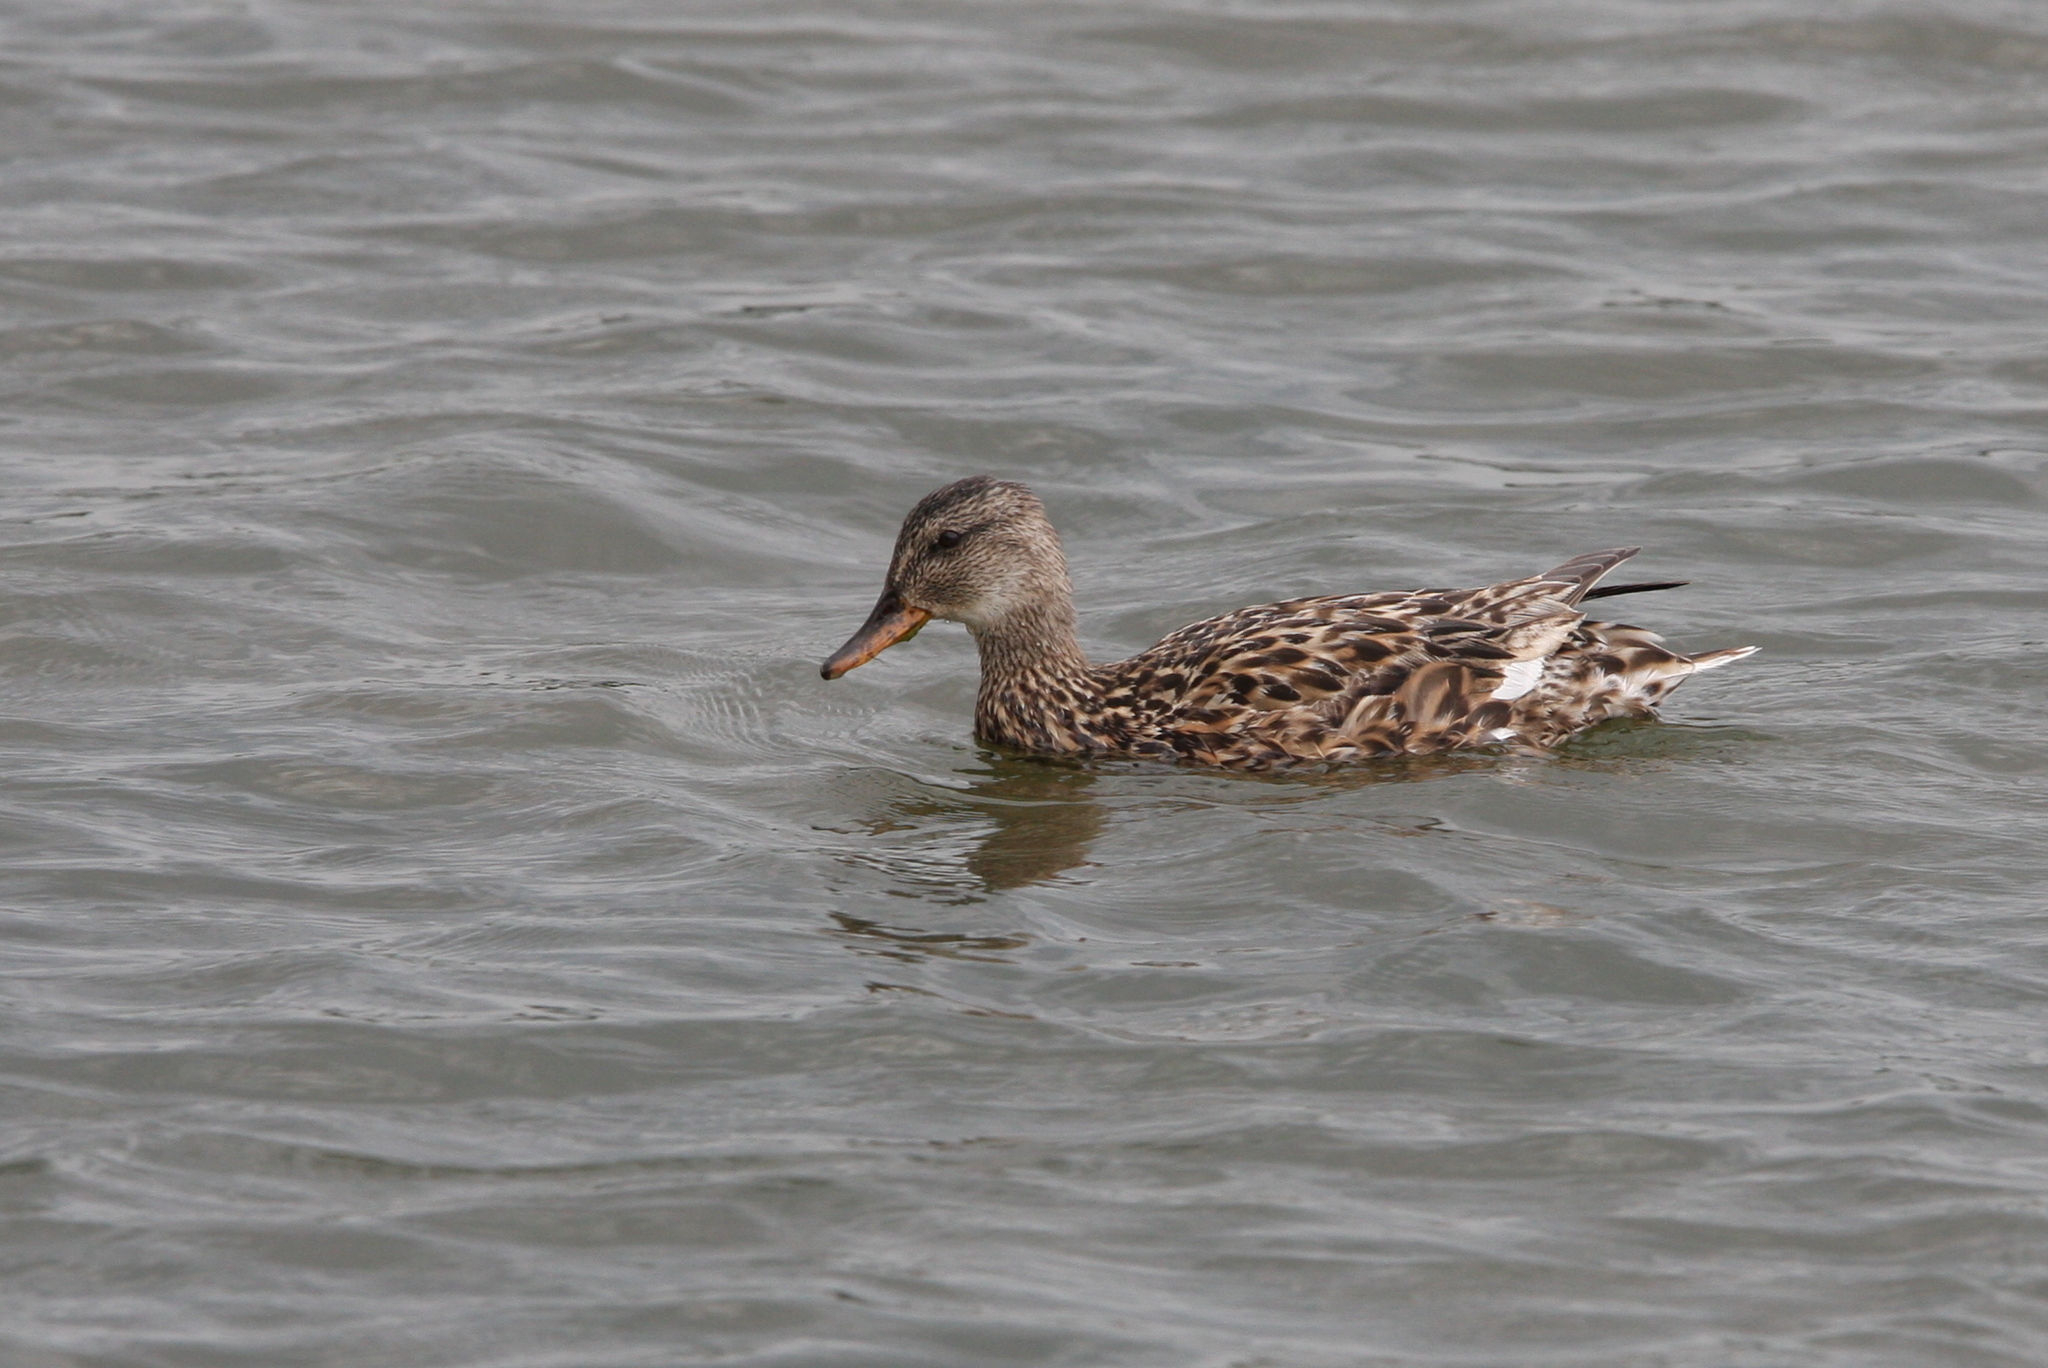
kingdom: Animalia
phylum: Chordata
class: Aves
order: Anseriformes
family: Anatidae
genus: Mareca
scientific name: Mareca strepera
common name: Gadwall
